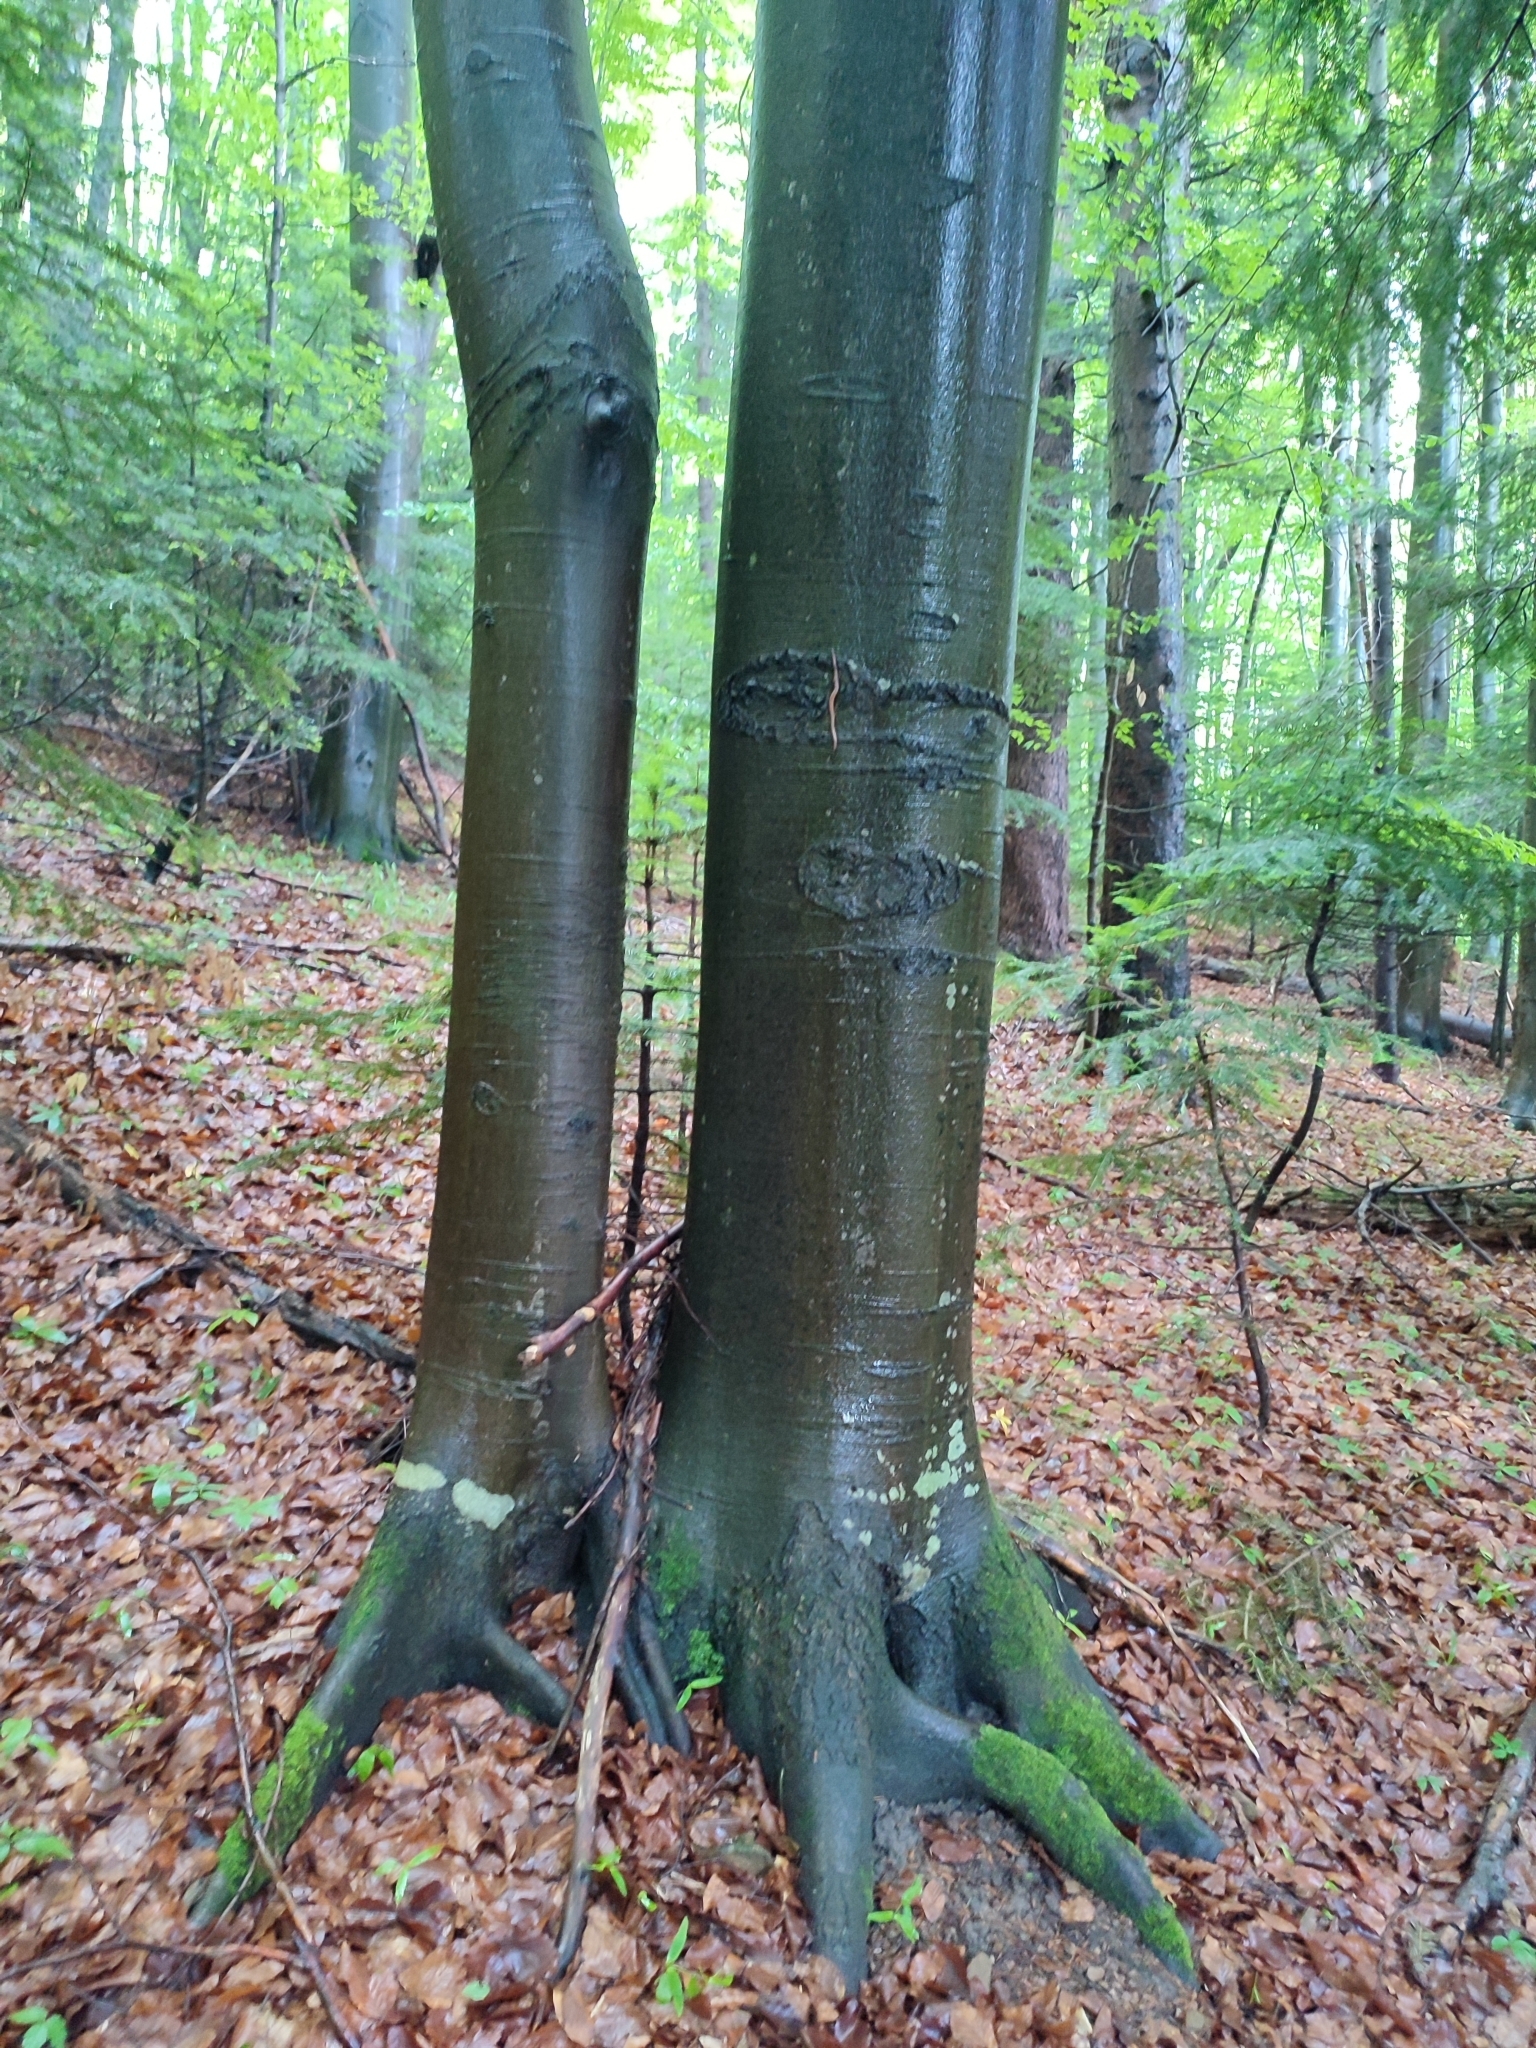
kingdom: Plantae
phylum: Tracheophyta
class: Magnoliopsida
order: Fagales
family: Fagaceae
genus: Fagus
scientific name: Fagus sylvatica
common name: Beech
